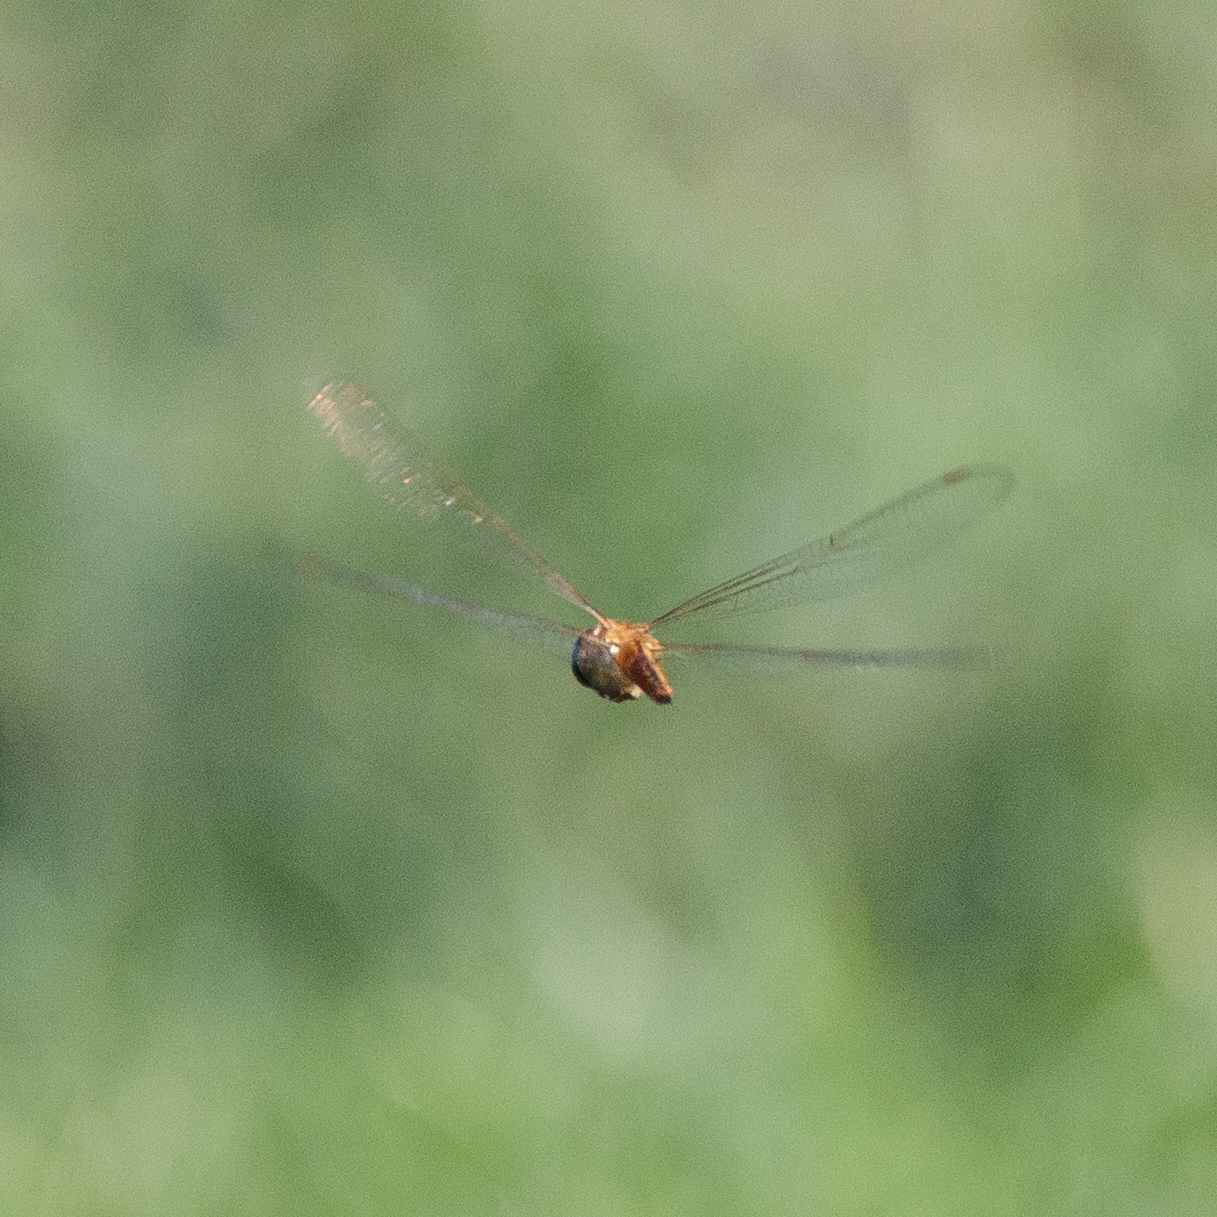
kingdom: Animalia
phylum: Arthropoda
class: Insecta
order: Odonata
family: Libellulidae
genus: Pantala
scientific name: Pantala flavescens
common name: Wandering glider
